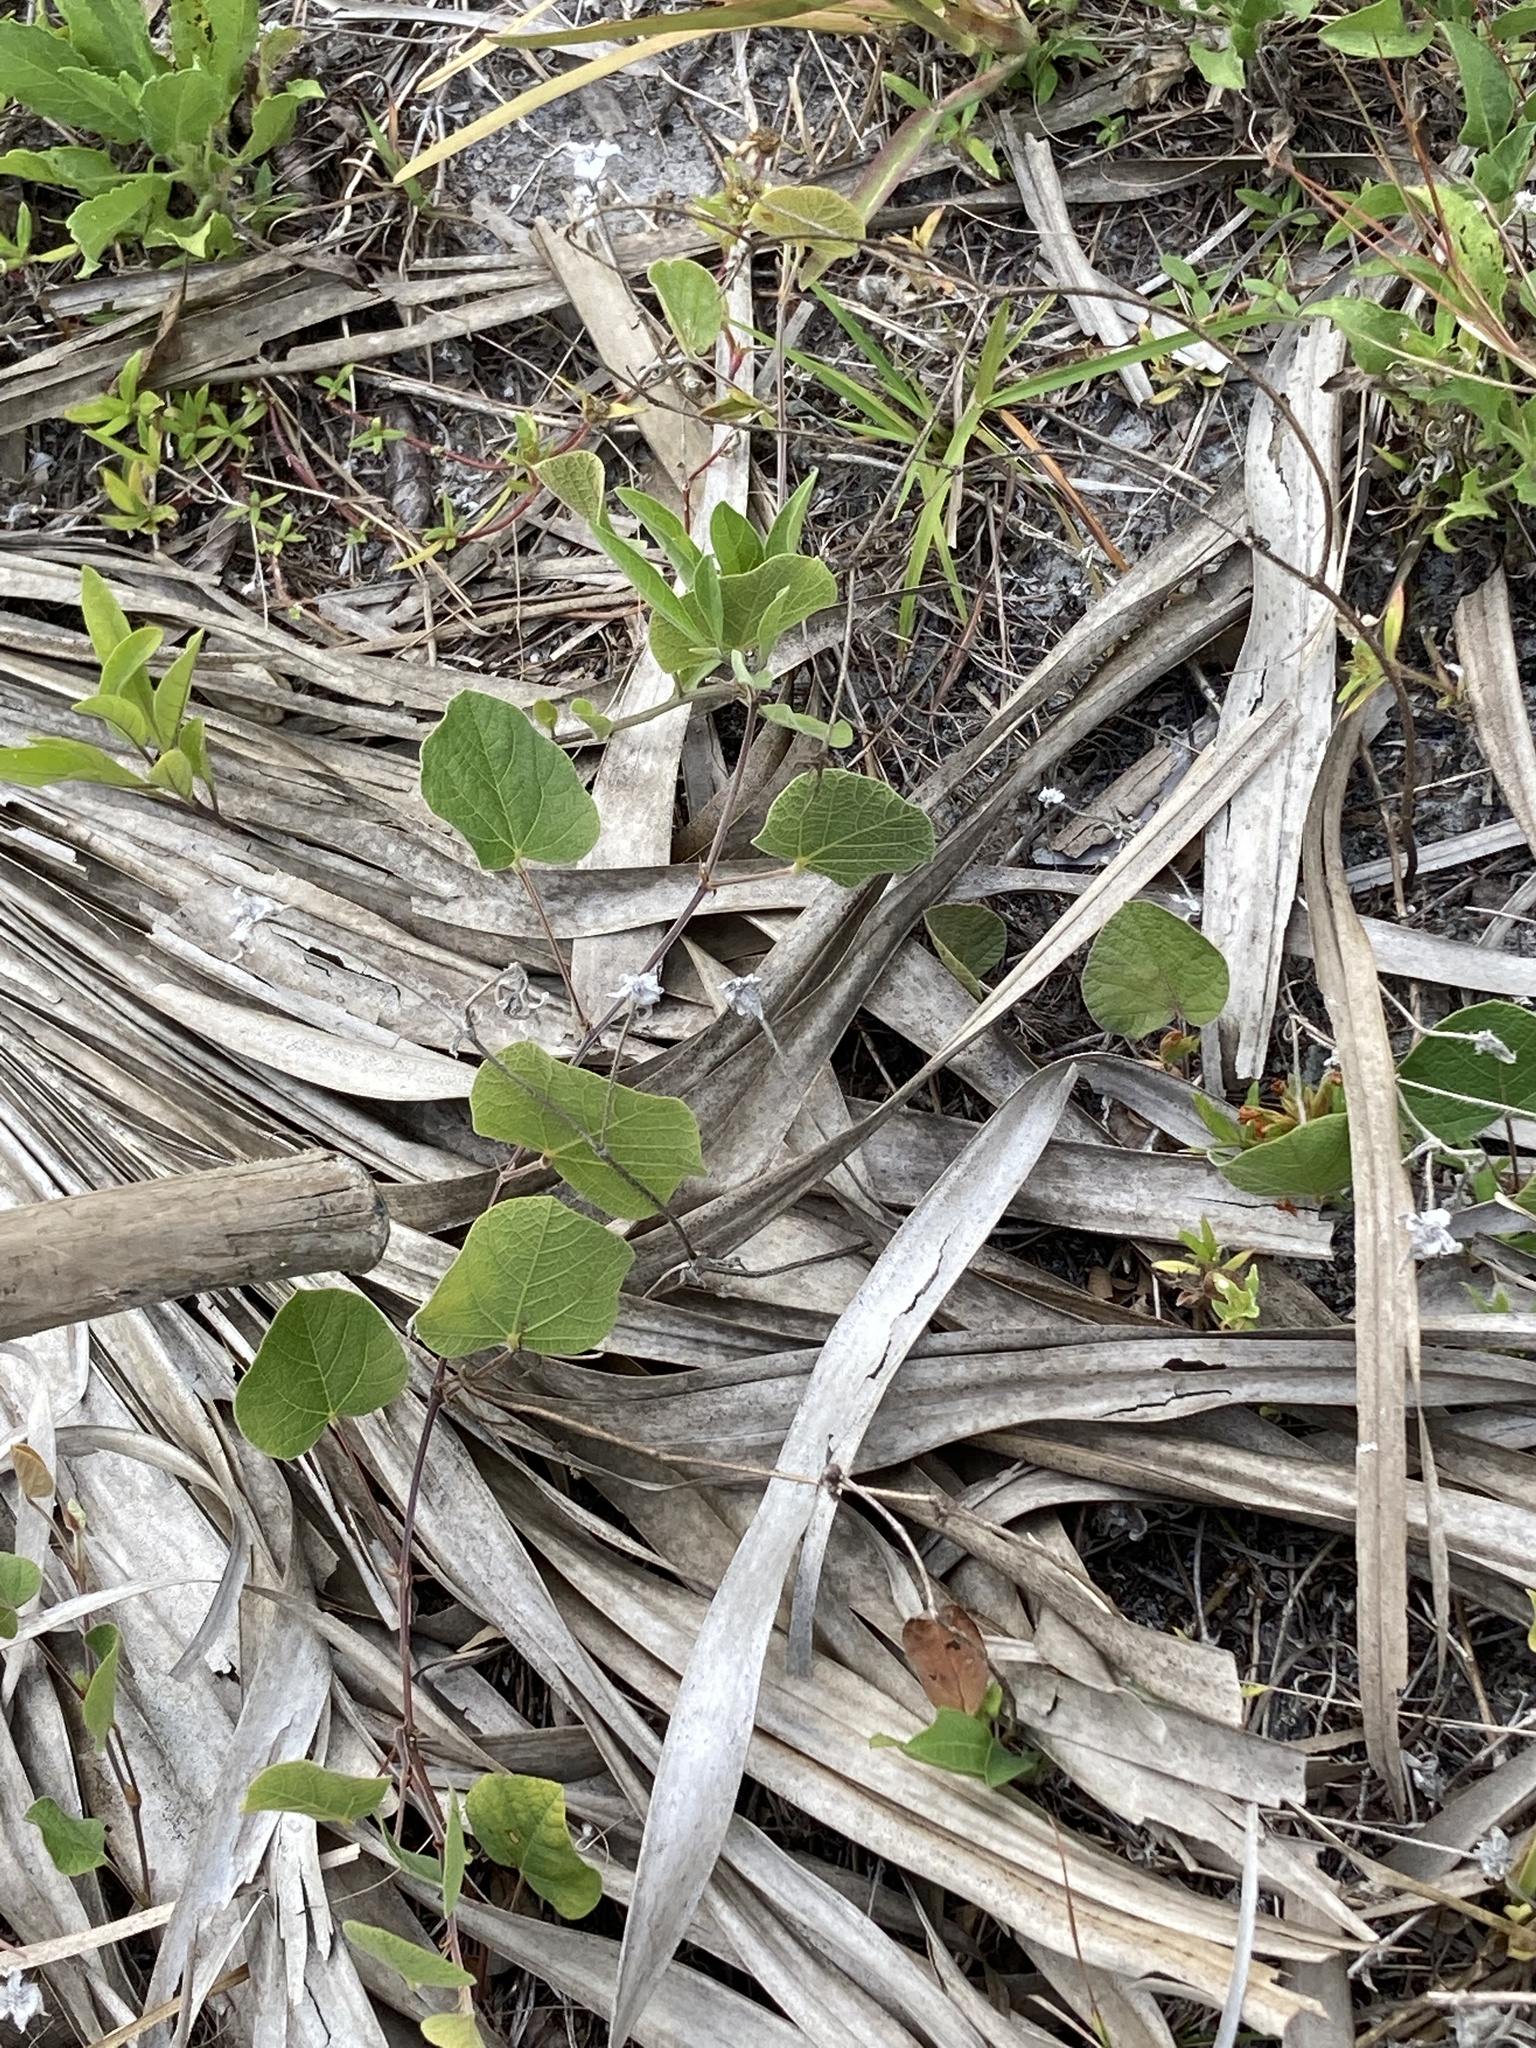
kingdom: Plantae
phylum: Tracheophyta
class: Magnoliopsida
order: Fabales
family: Fabaceae
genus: Rhynchosia
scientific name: Rhynchosia michauxii
